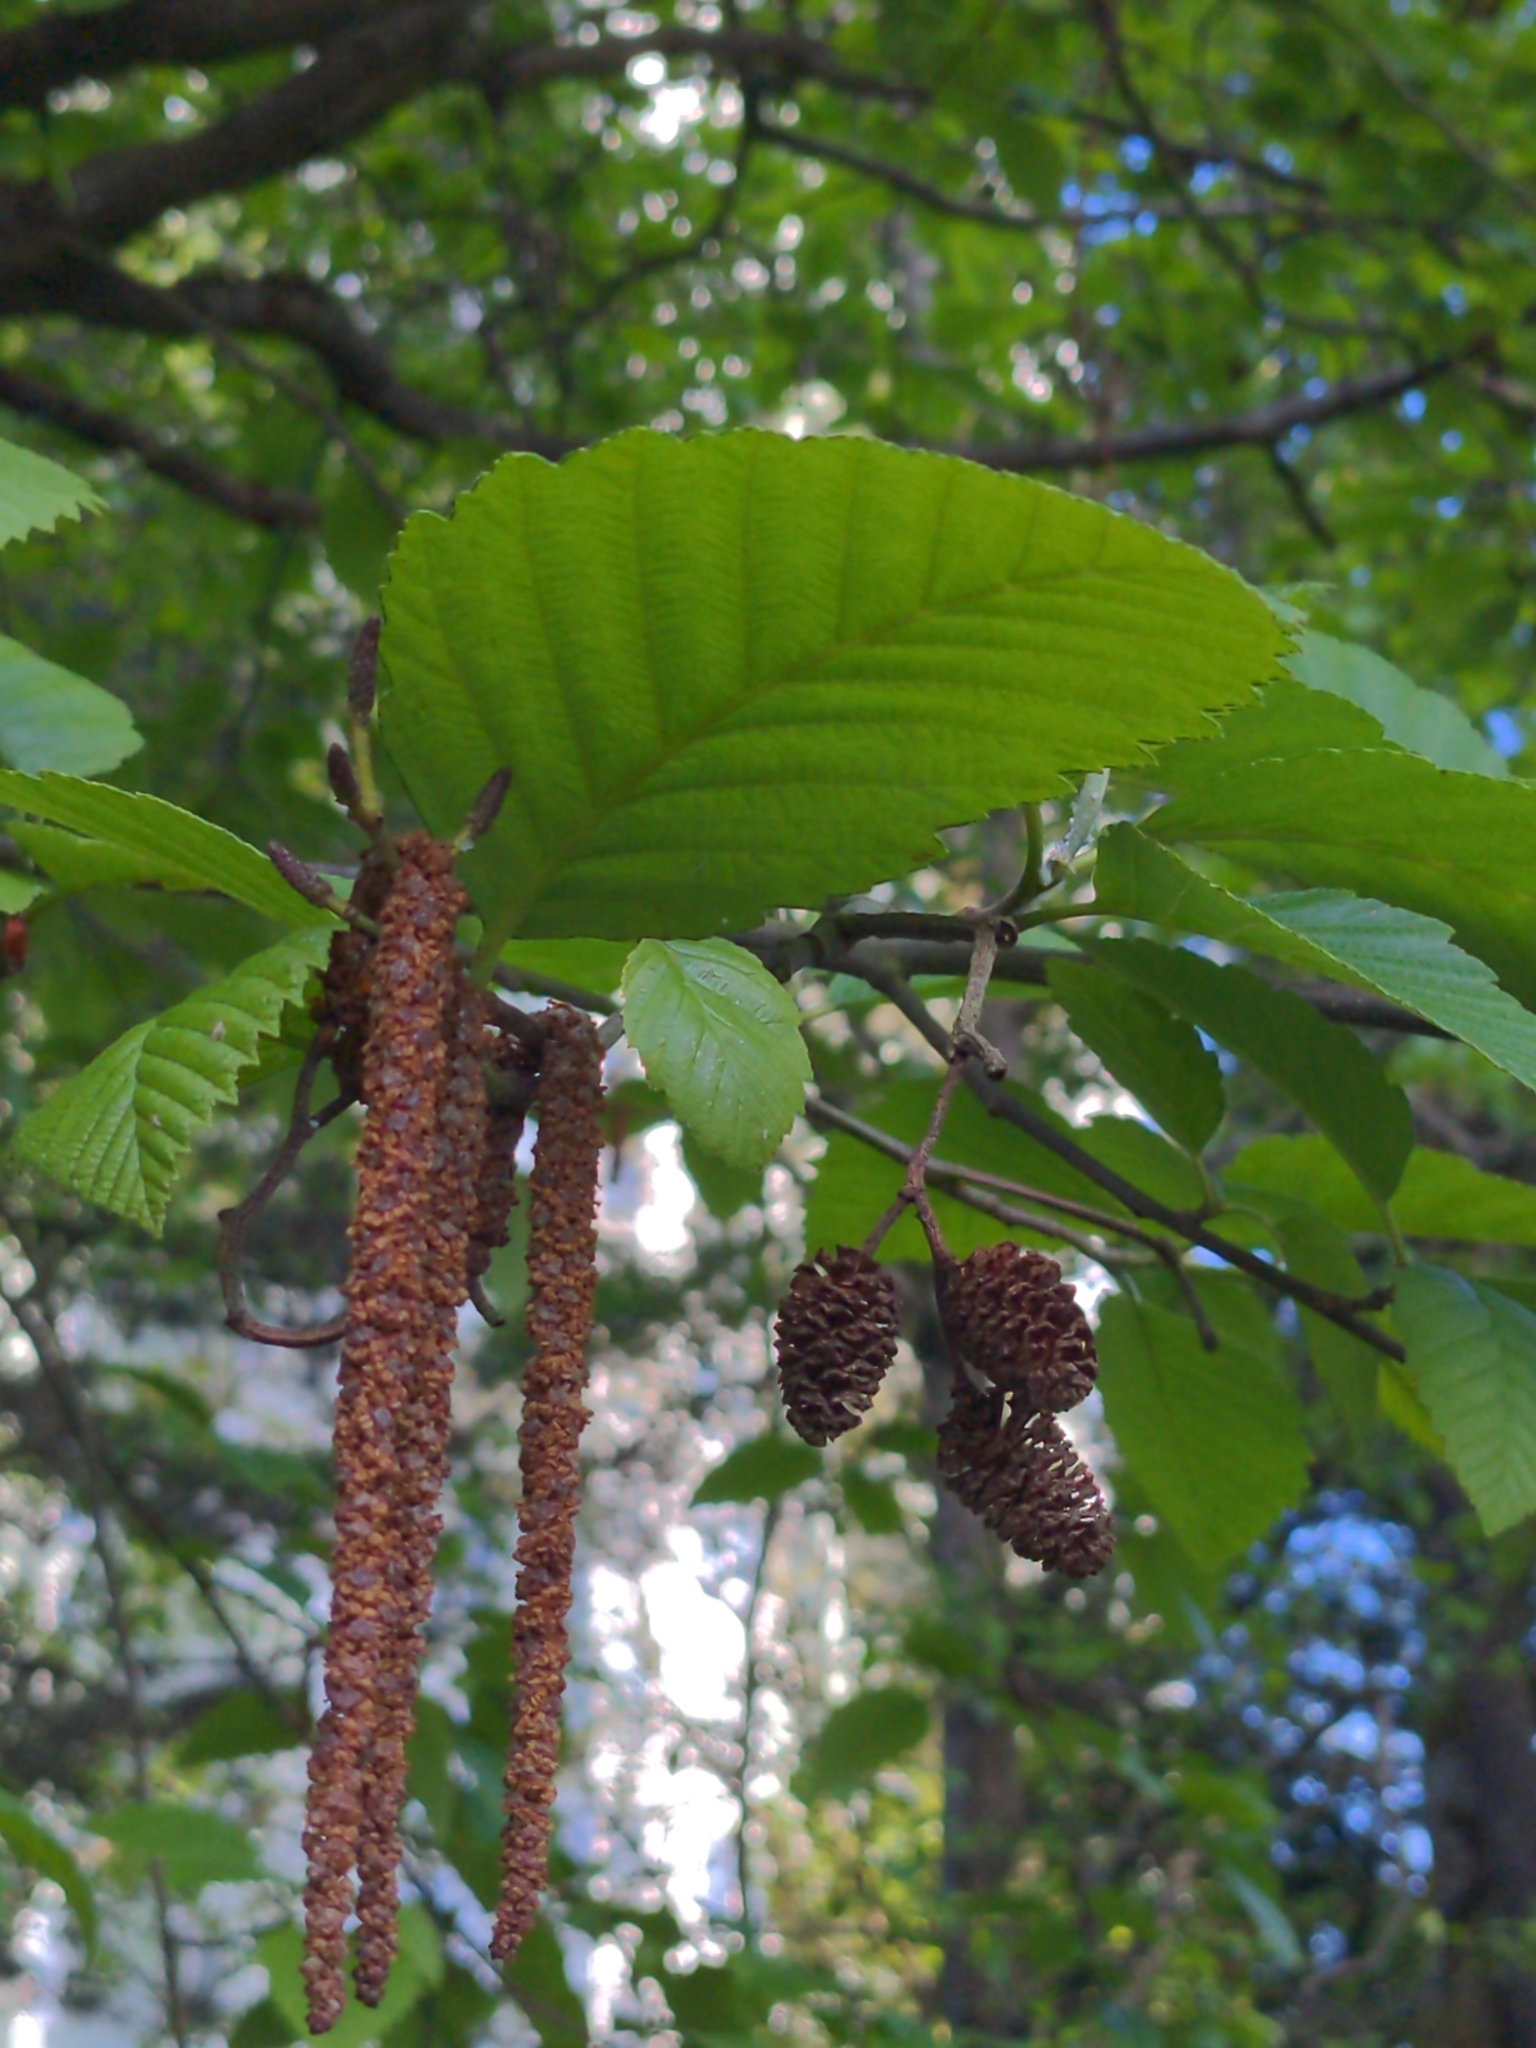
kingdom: Plantae
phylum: Tracheophyta
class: Magnoliopsida
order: Fagales
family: Betulaceae
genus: Alnus
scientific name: Alnus rubra
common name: Red alder
